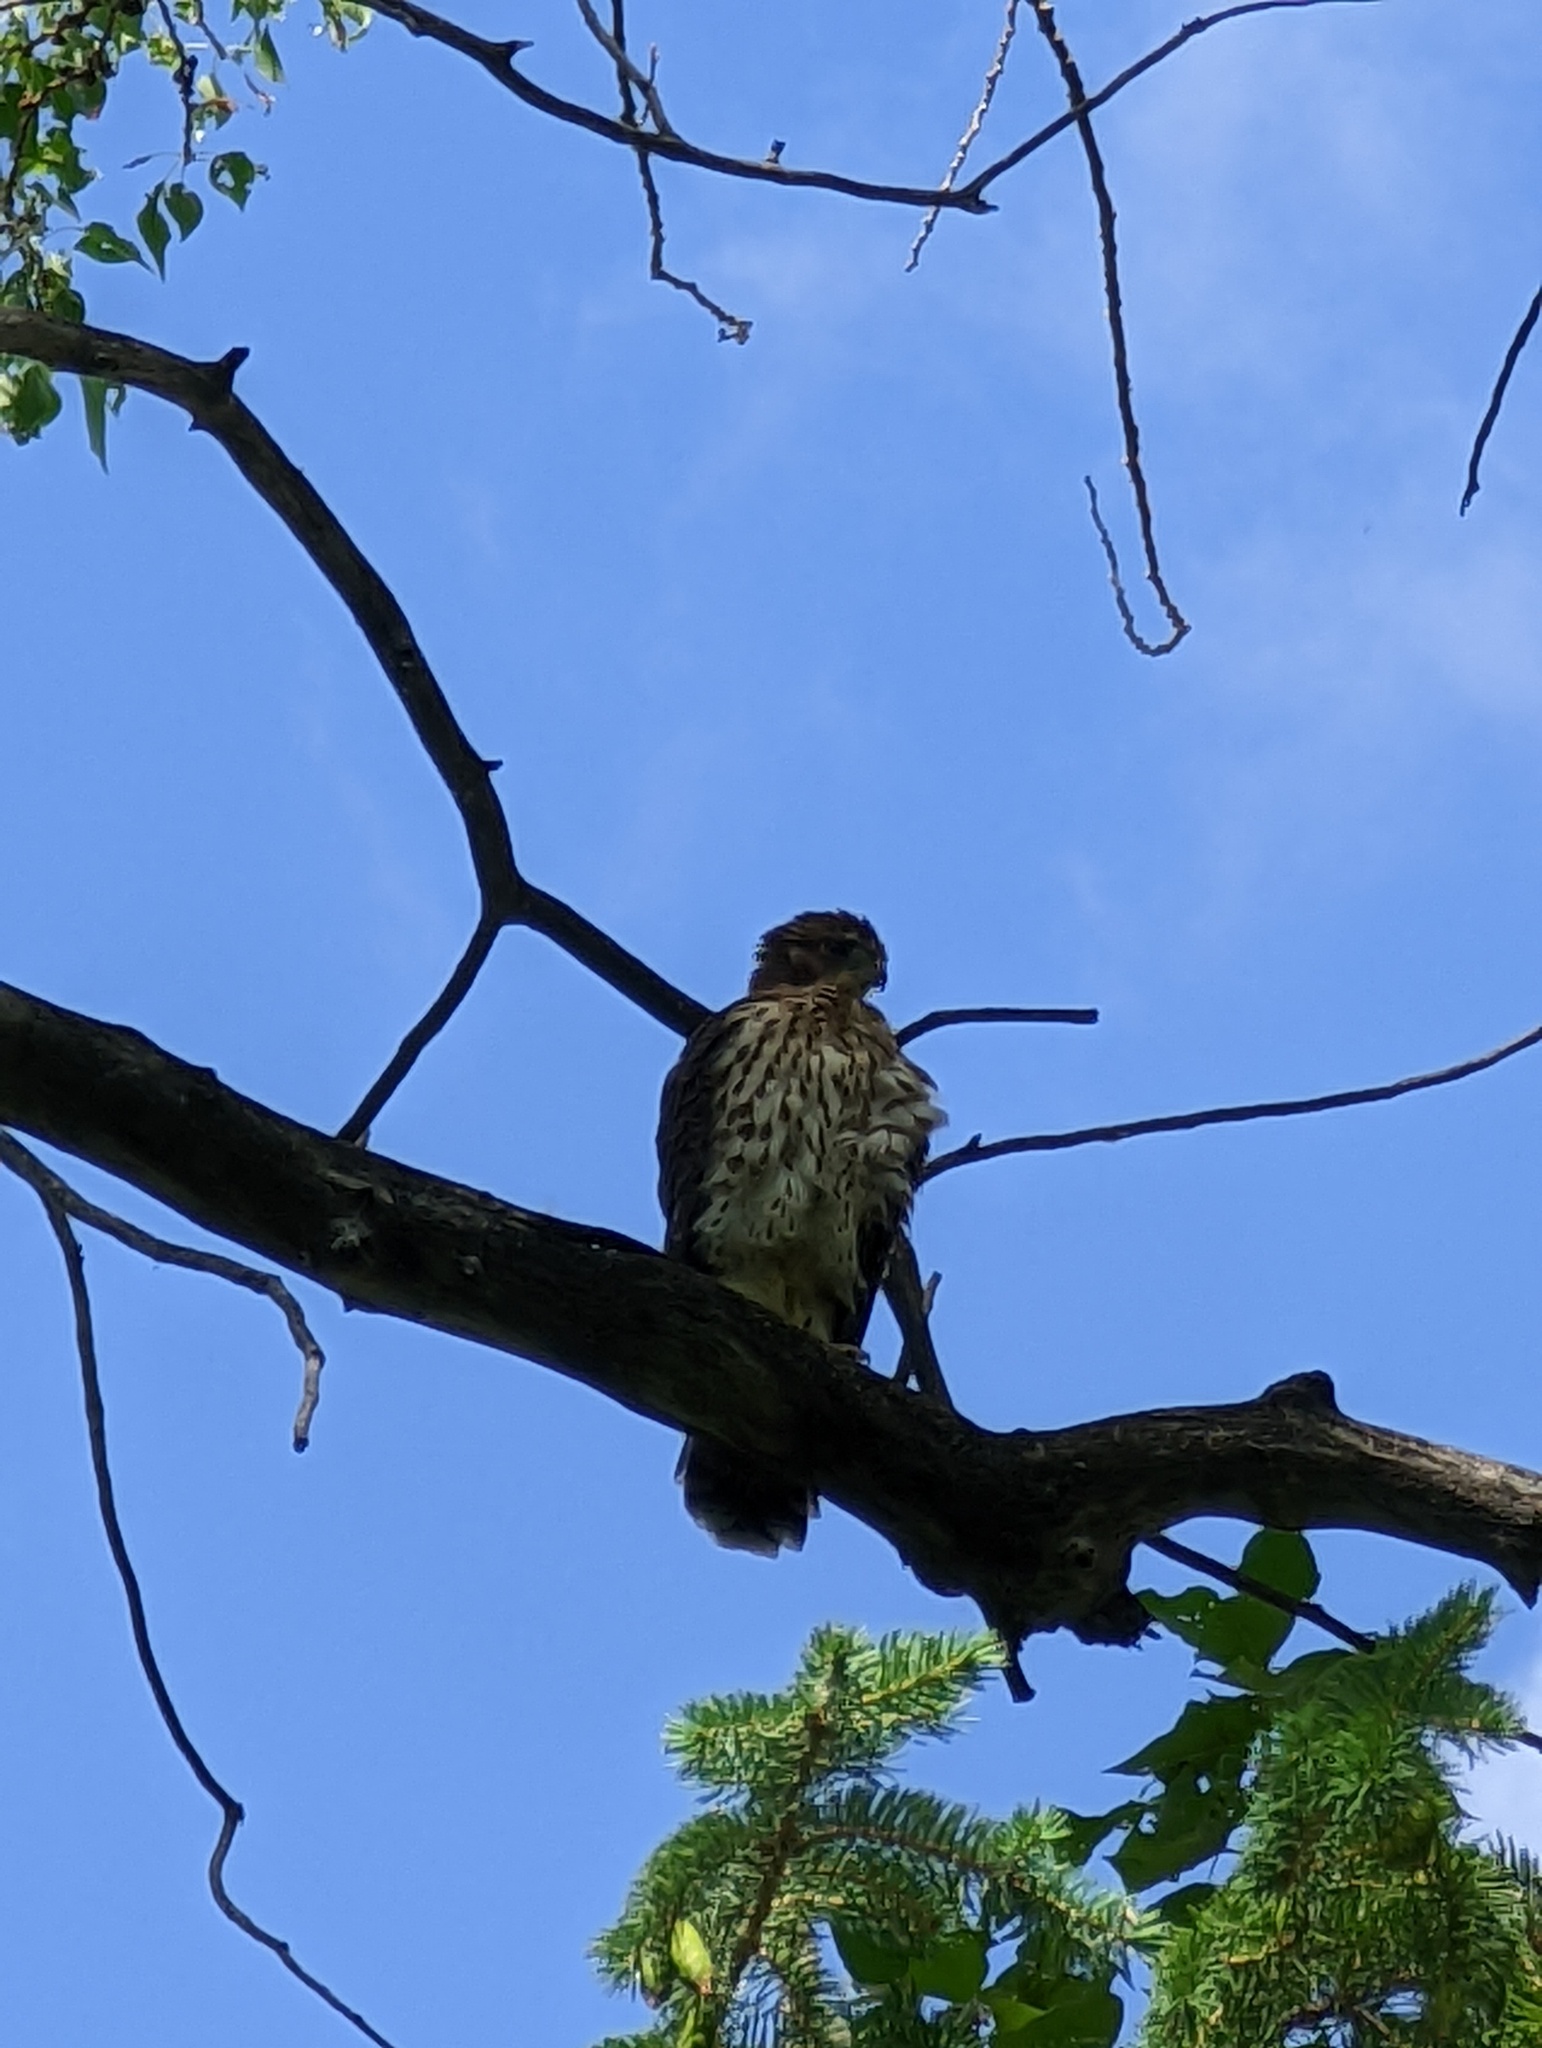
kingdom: Animalia
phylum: Chordata
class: Aves
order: Accipitriformes
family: Accipitridae
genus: Accipiter
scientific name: Accipiter cooperii
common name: Cooper's hawk
